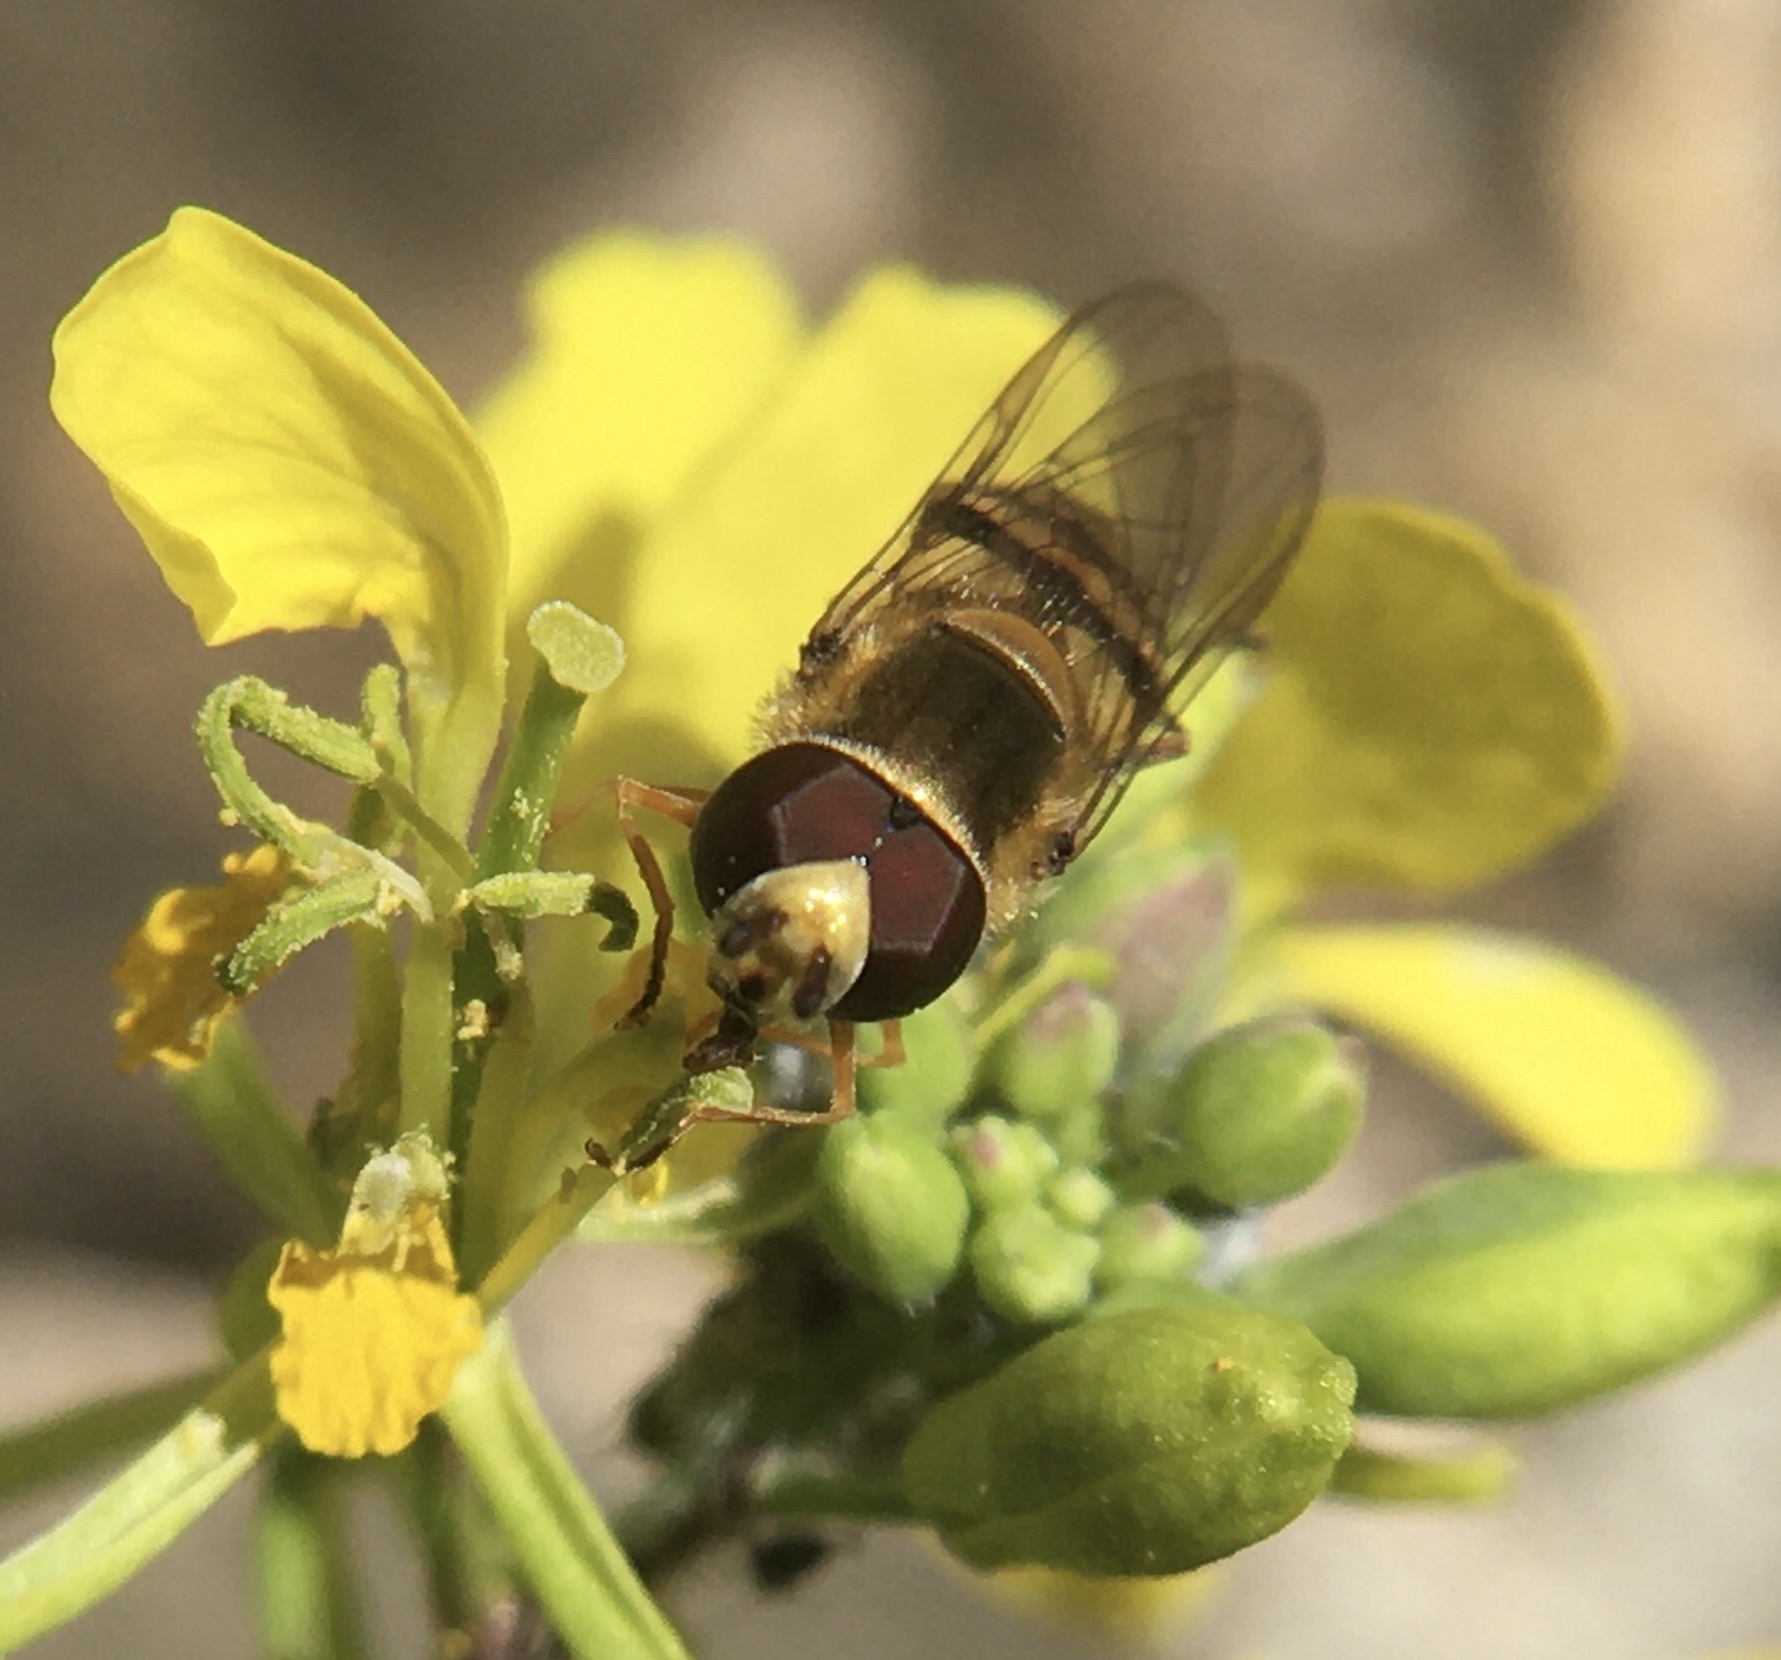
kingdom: Animalia
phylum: Arthropoda
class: Insecta
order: Diptera
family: Syrphidae
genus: Eupeodes
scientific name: Eupeodes corollae
